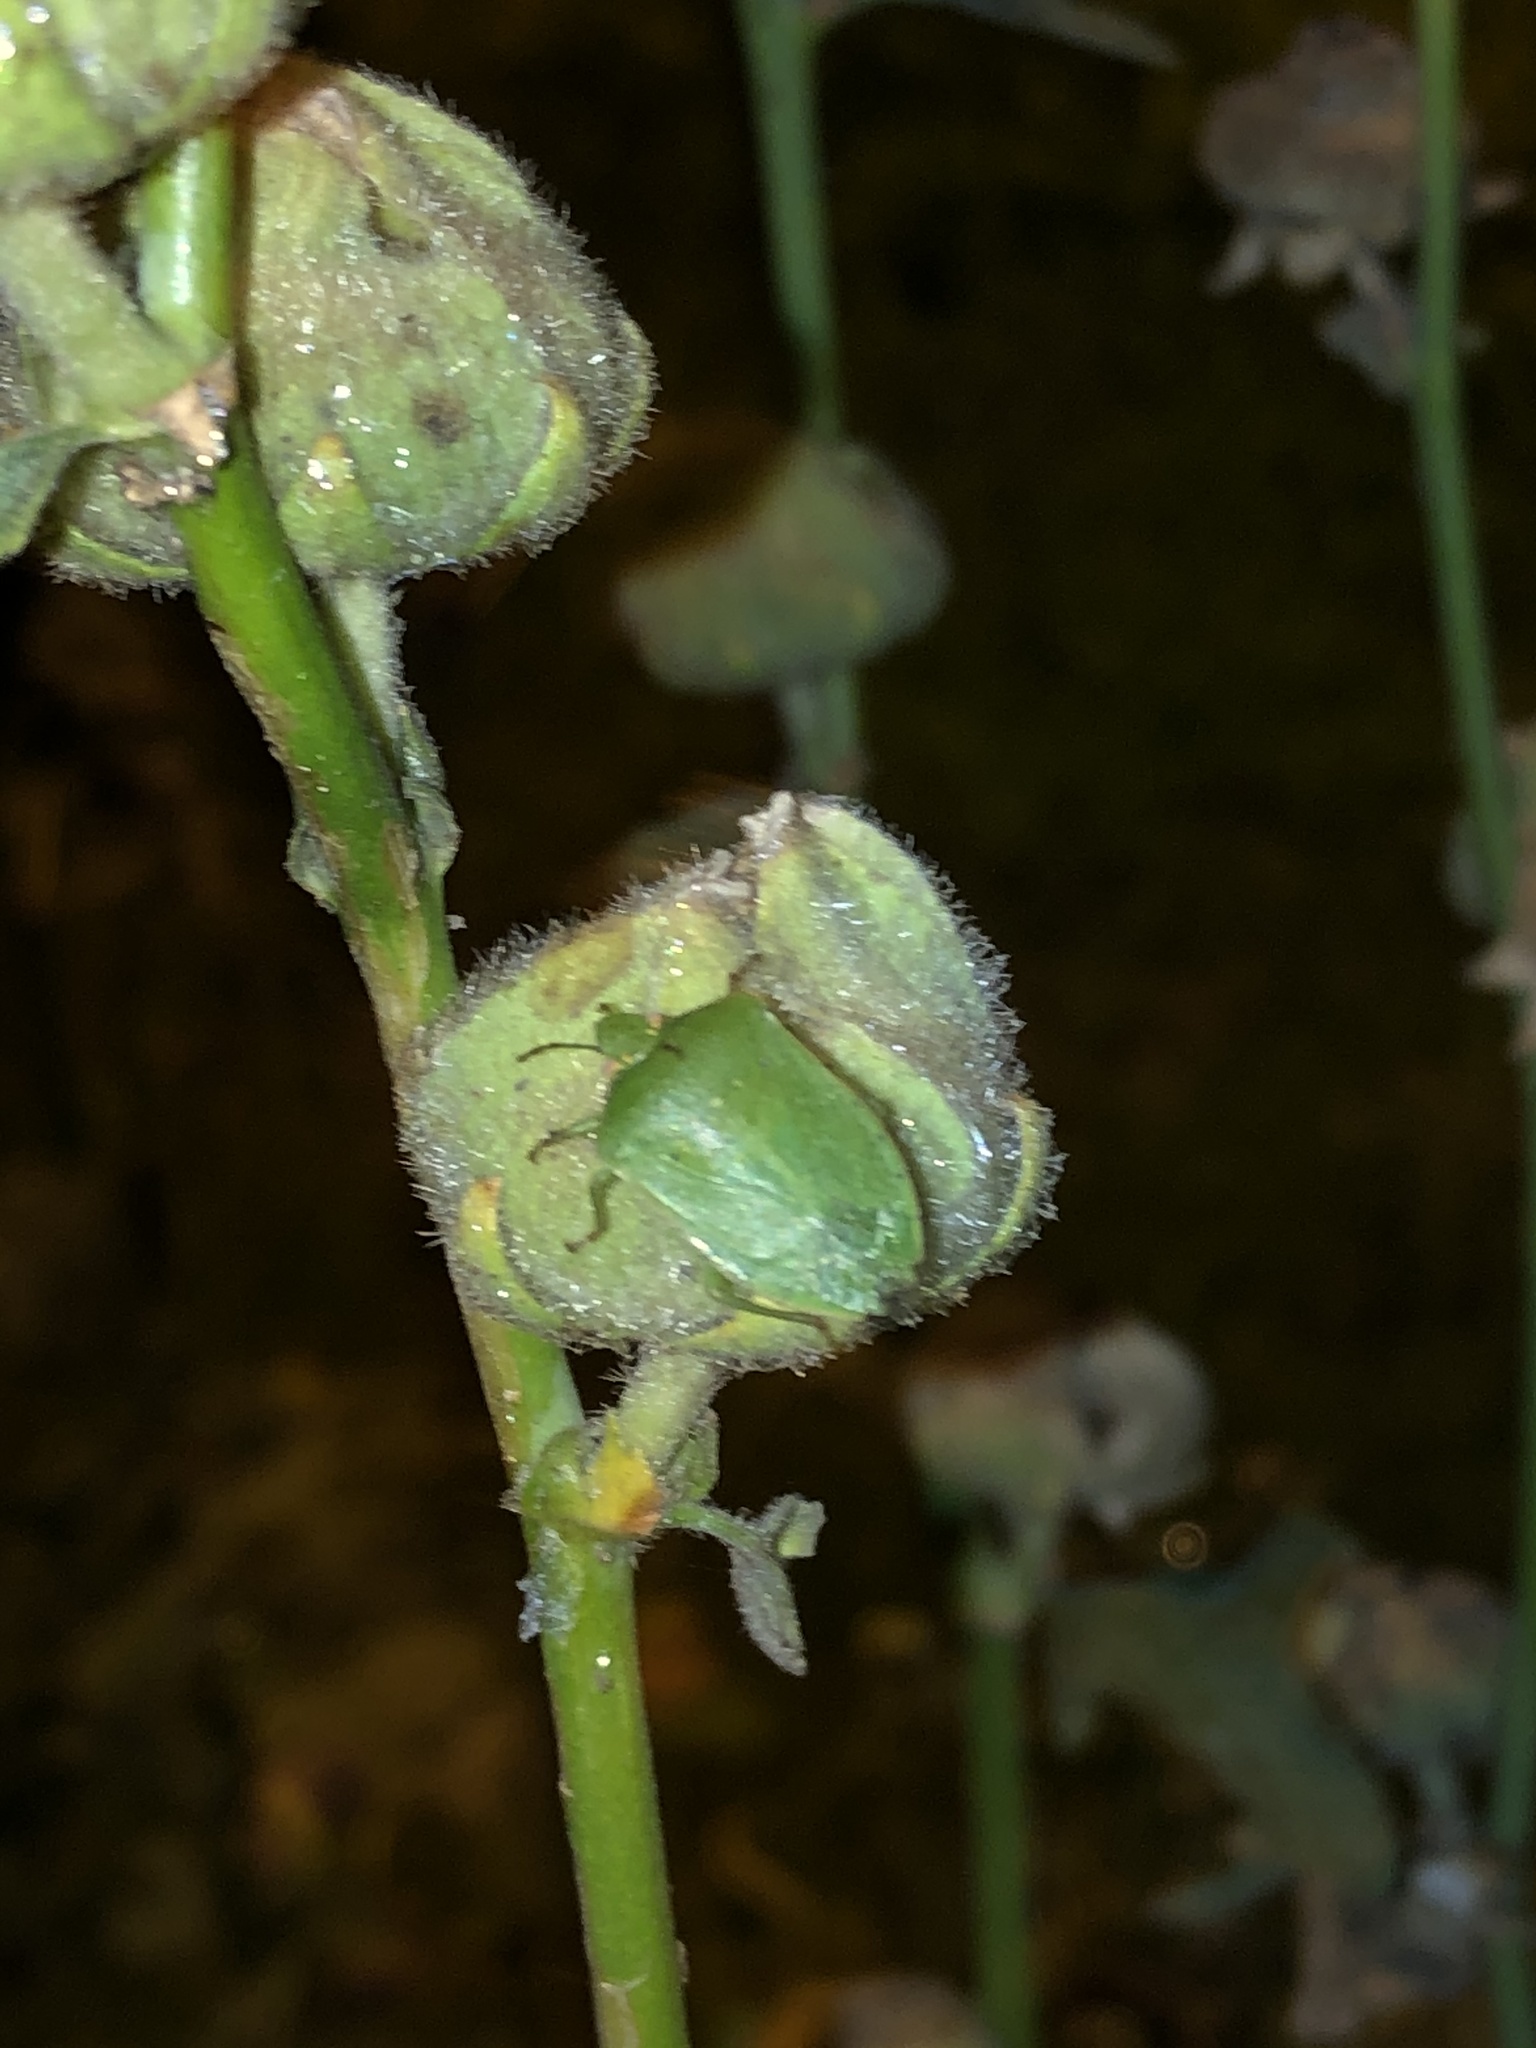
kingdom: Animalia
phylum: Arthropoda
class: Insecta
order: Hemiptera
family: Pentatomidae
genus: Nezara
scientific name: Nezara viridula
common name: Southern green stink bug
